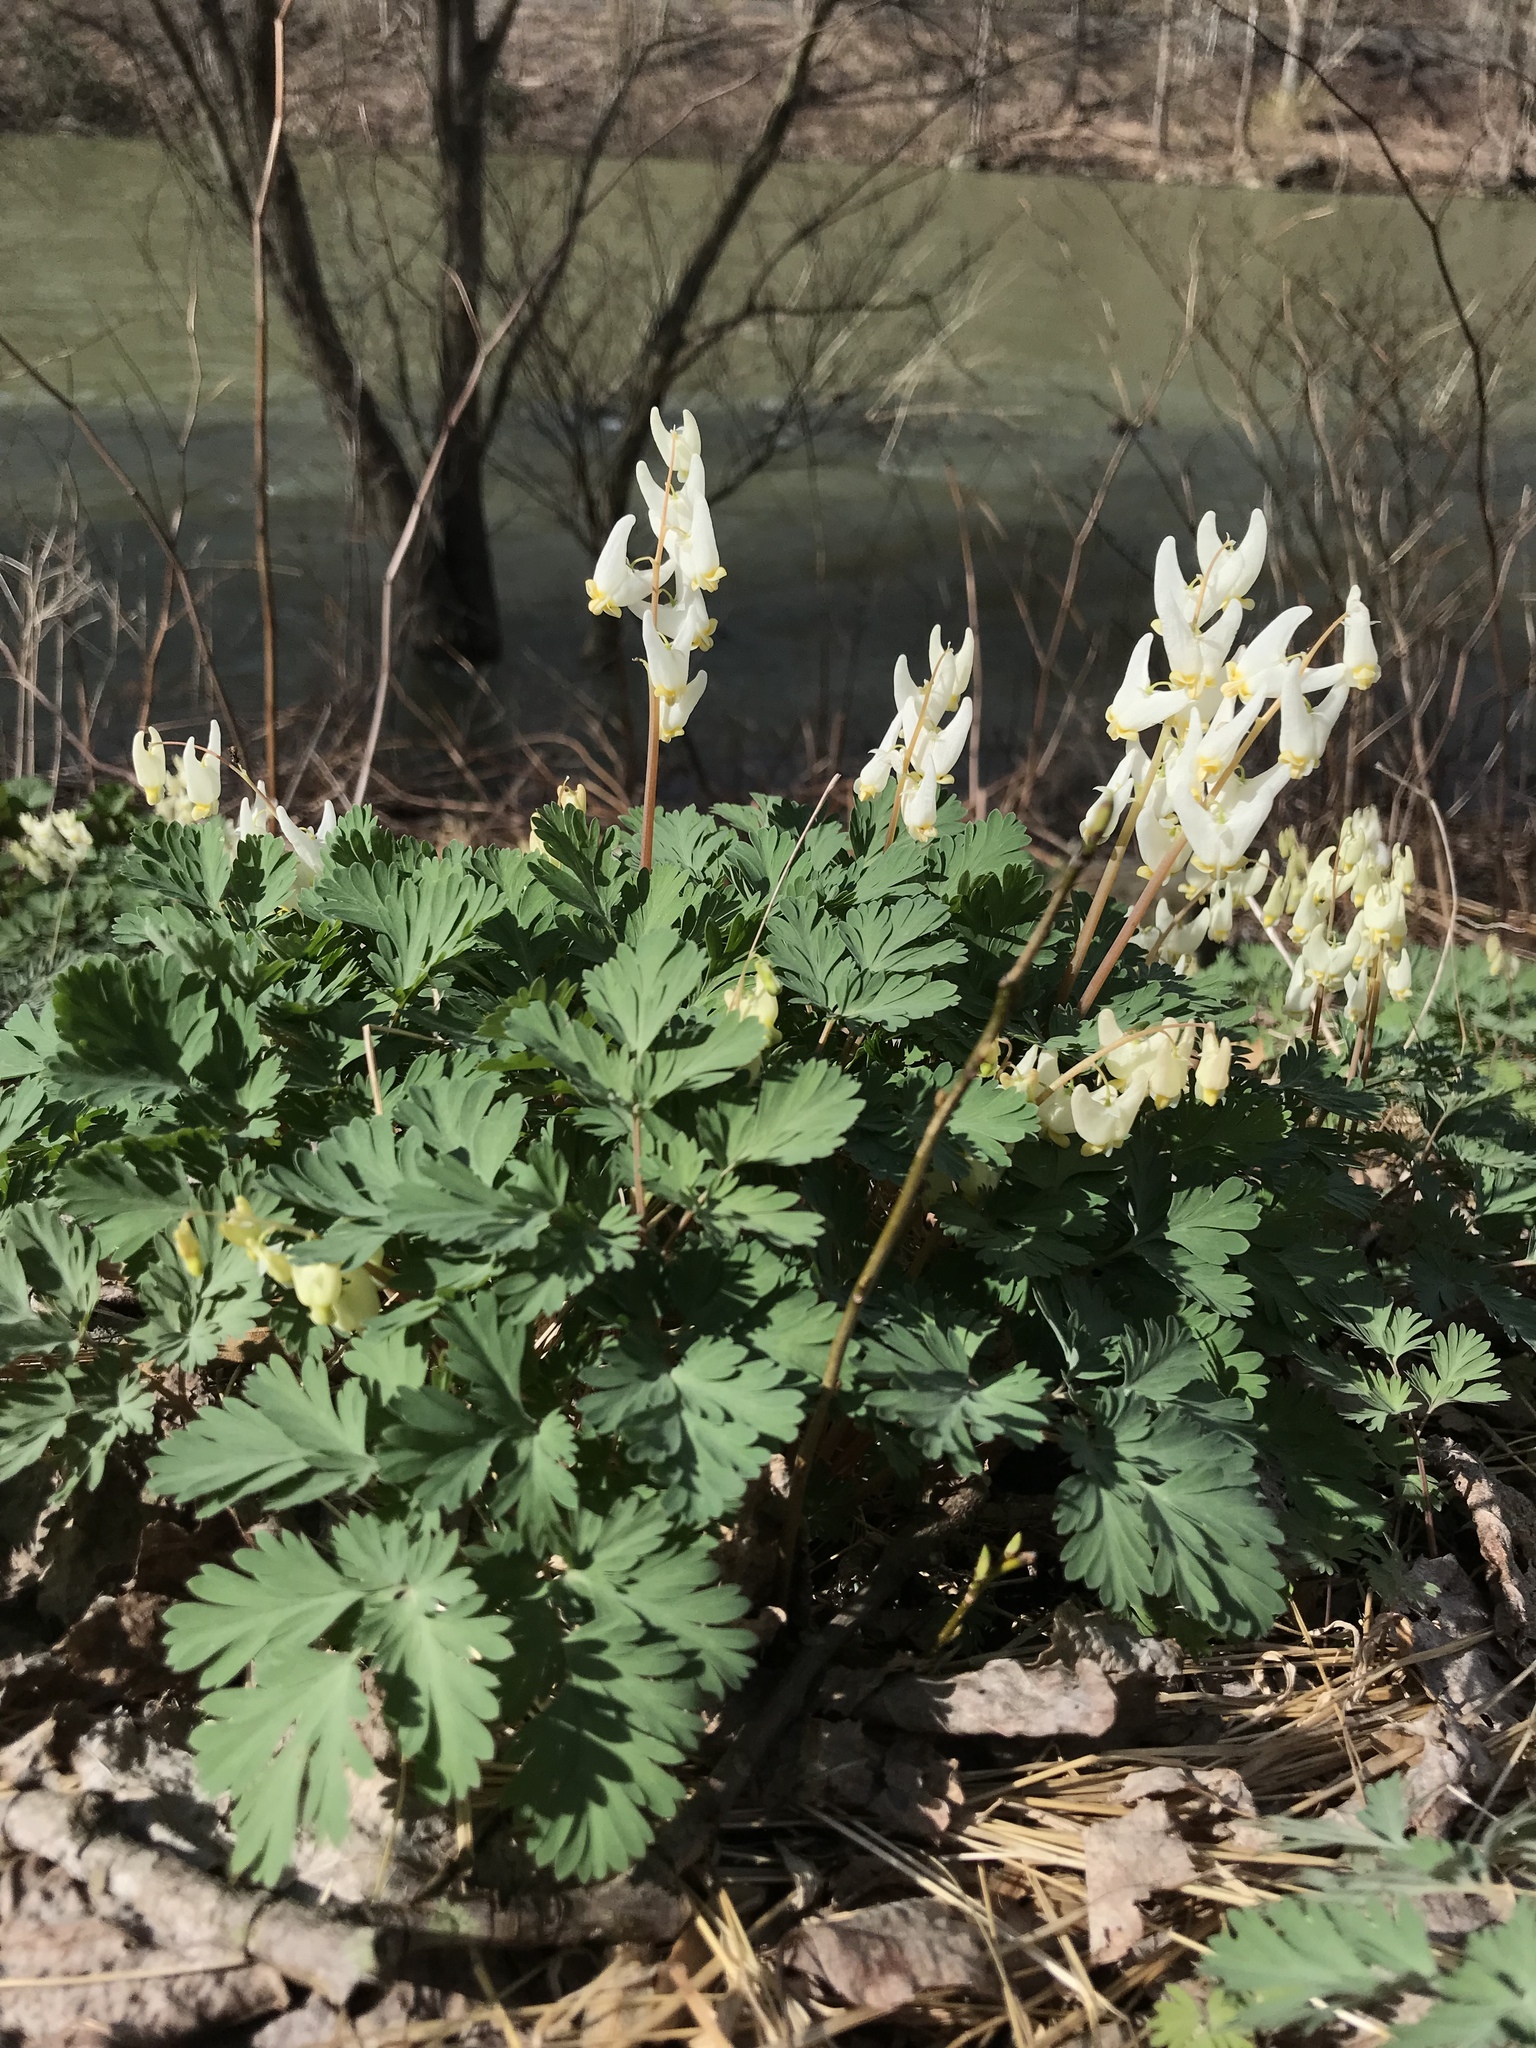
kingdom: Plantae
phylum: Tracheophyta
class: Magnoliopsida
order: Ranunculales
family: Papaveraceae
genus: Dicentra
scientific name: Dicentra cucullaria
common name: Dutchman's breeches
